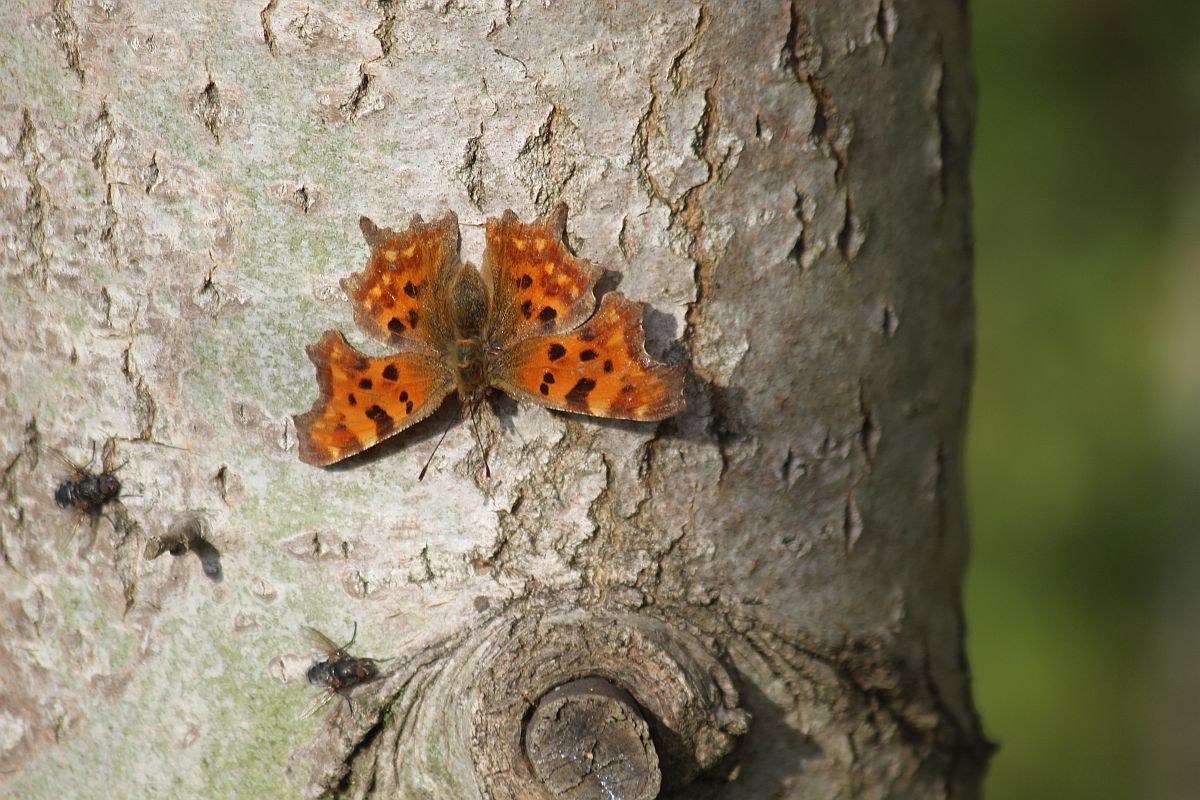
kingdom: Animalia
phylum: Arthropoda
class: Insecta
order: Lepidoptera
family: Nymphalidae
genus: Polygonia
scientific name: Polygonia c-album
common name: Comma
